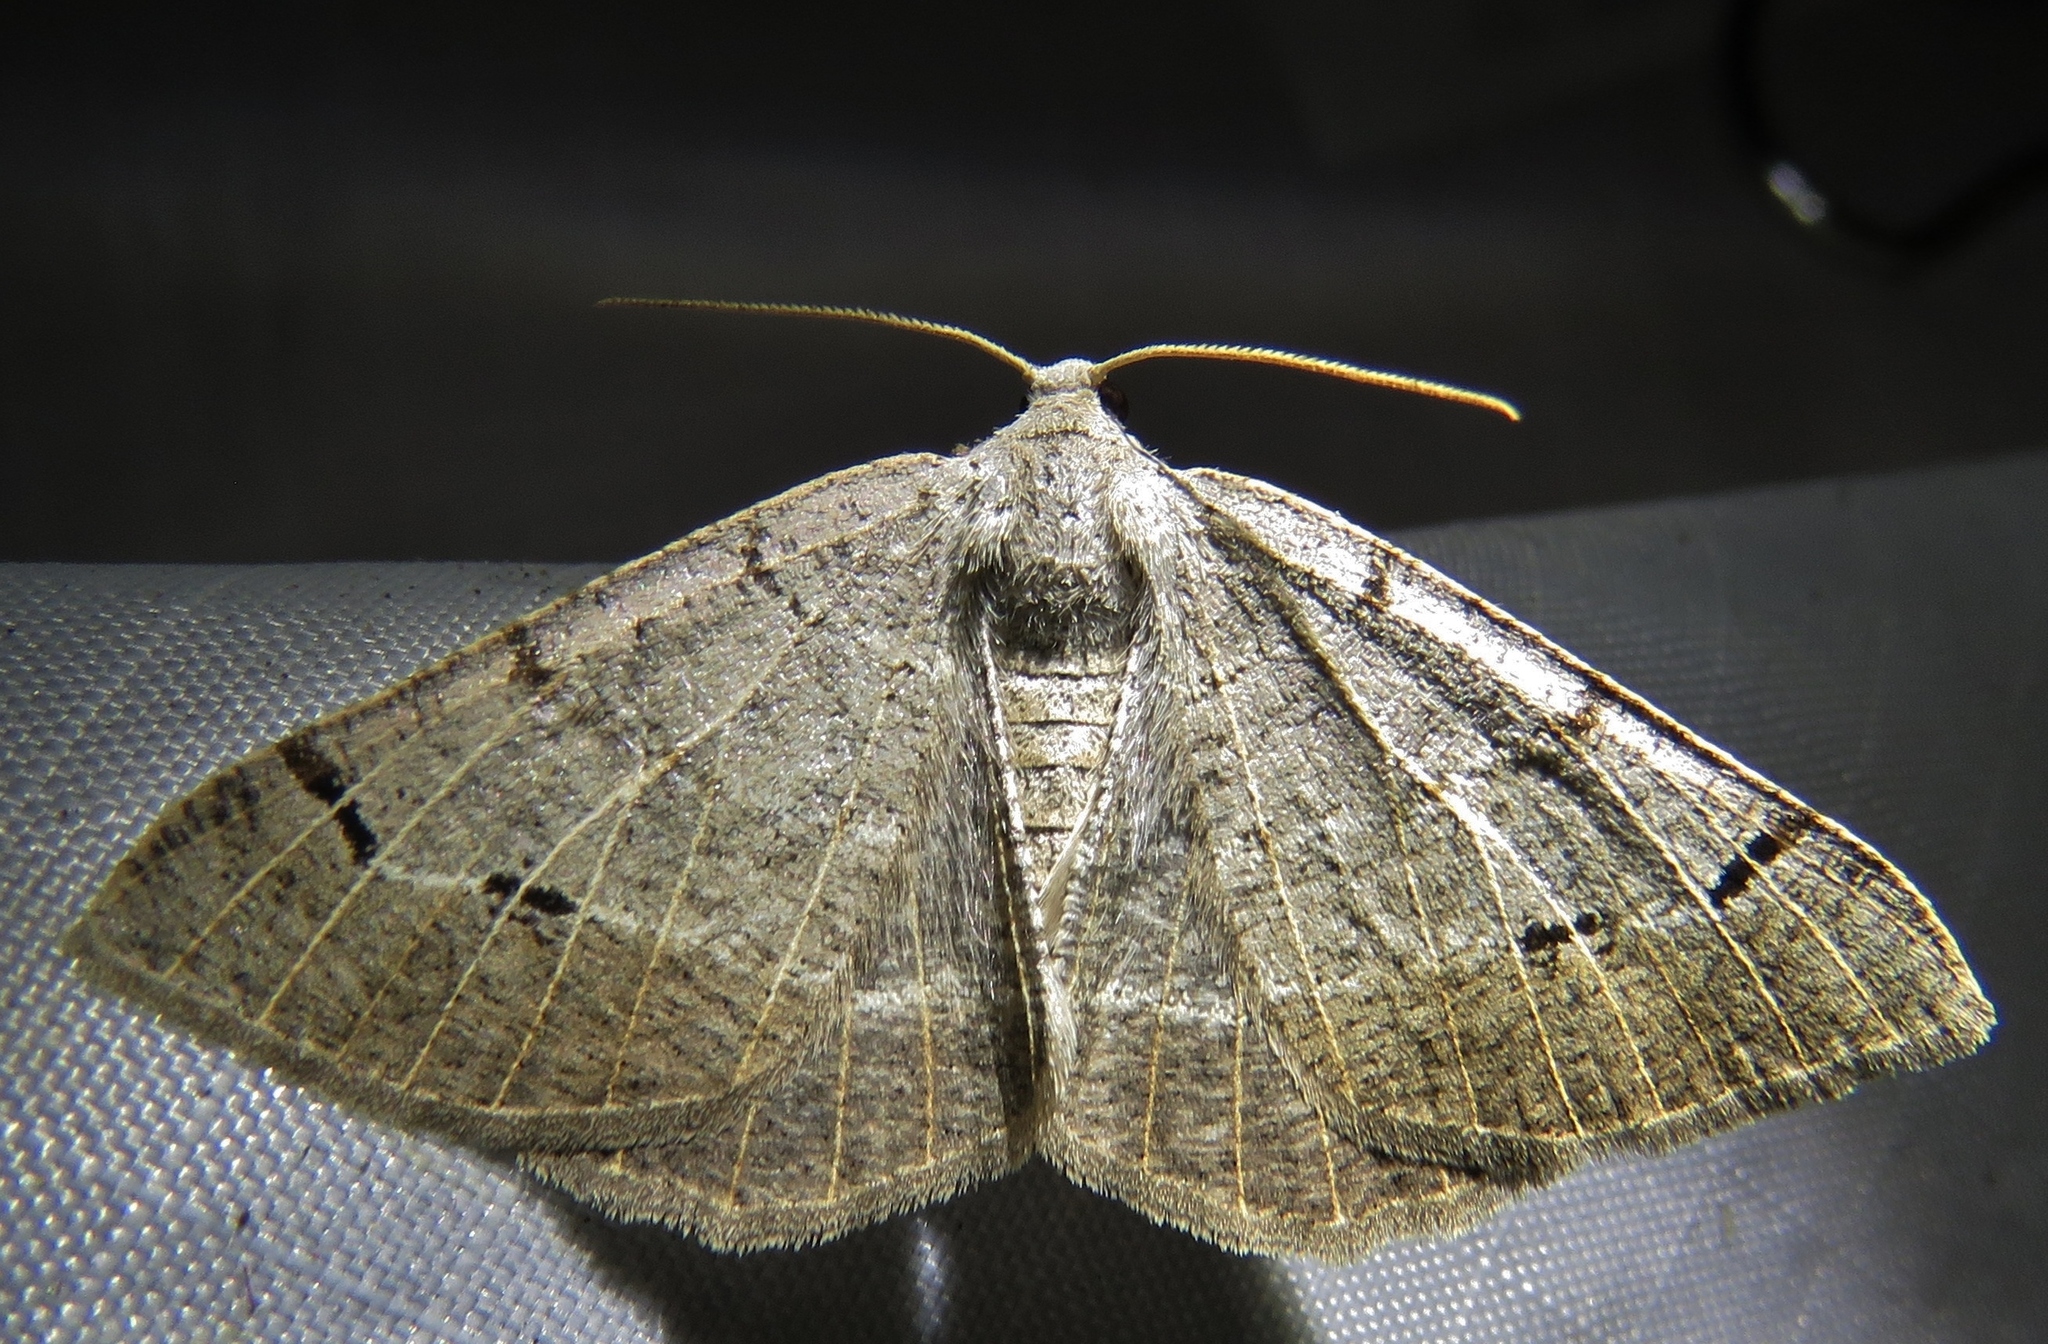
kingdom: Animalia
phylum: Arthropoda
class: Insecta
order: Lepidoptera
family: Geometridae
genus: Isturgia
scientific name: Isturgia dislocaria
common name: Pale-viened enconista
